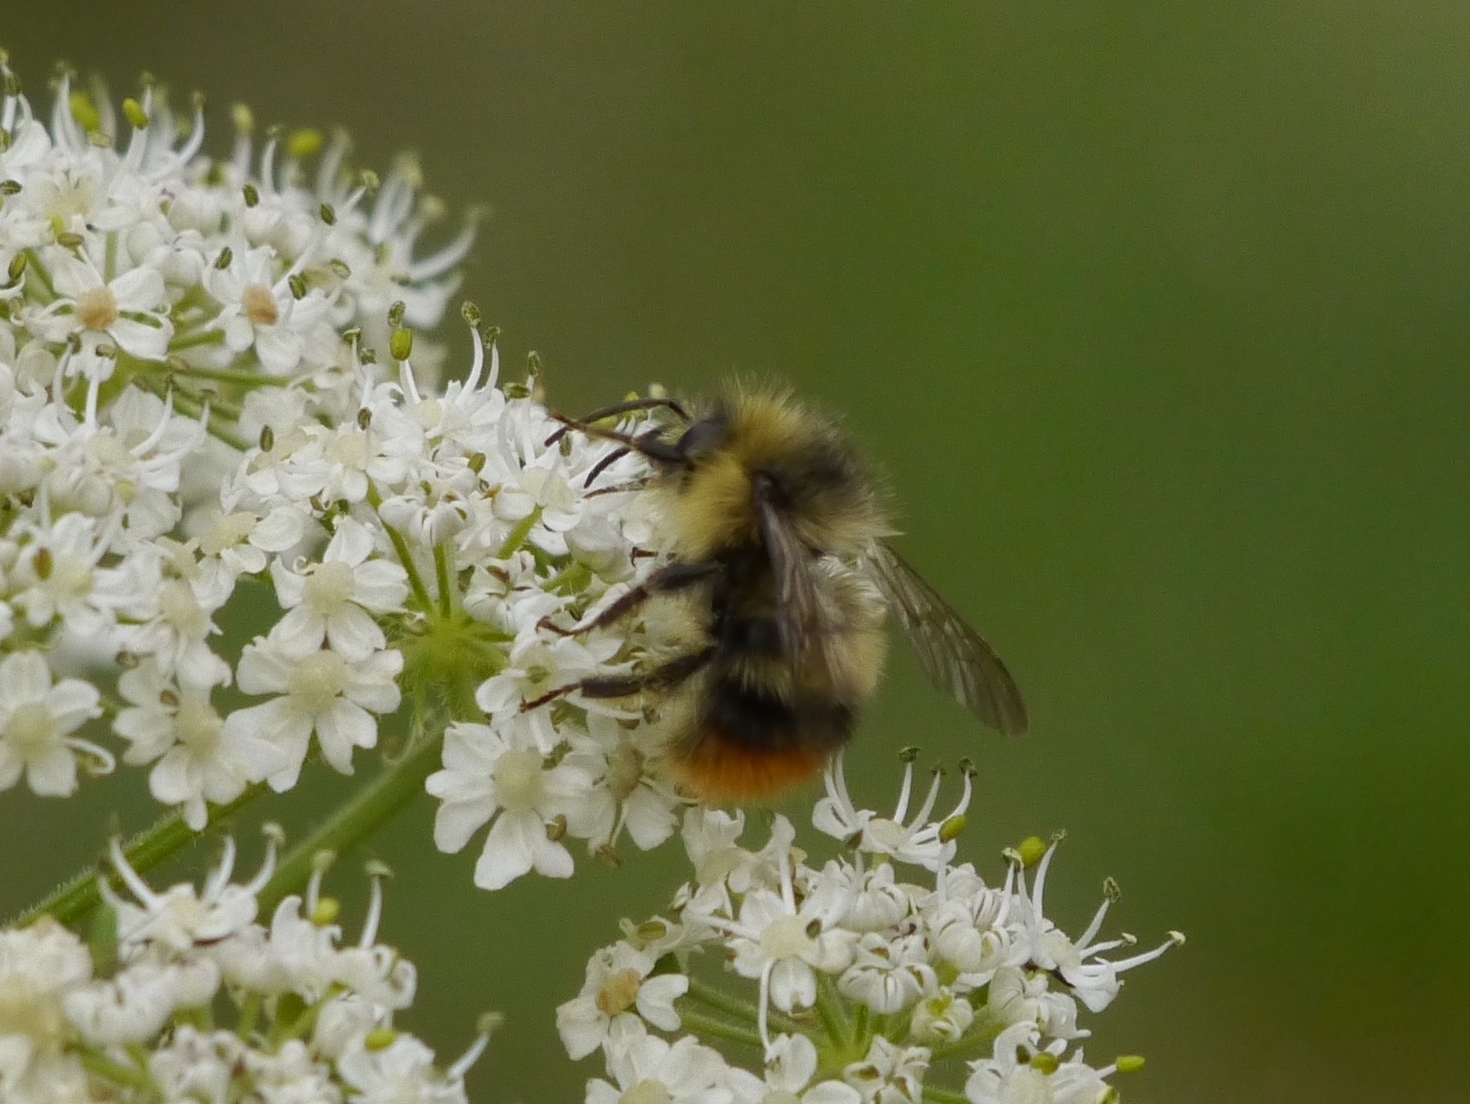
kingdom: Animalia
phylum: Arthropoda
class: Insecta
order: Hymenoptera
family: Apidae
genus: Bombus
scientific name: Bombus mixtus
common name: Fuzzy-horned bumble bee
